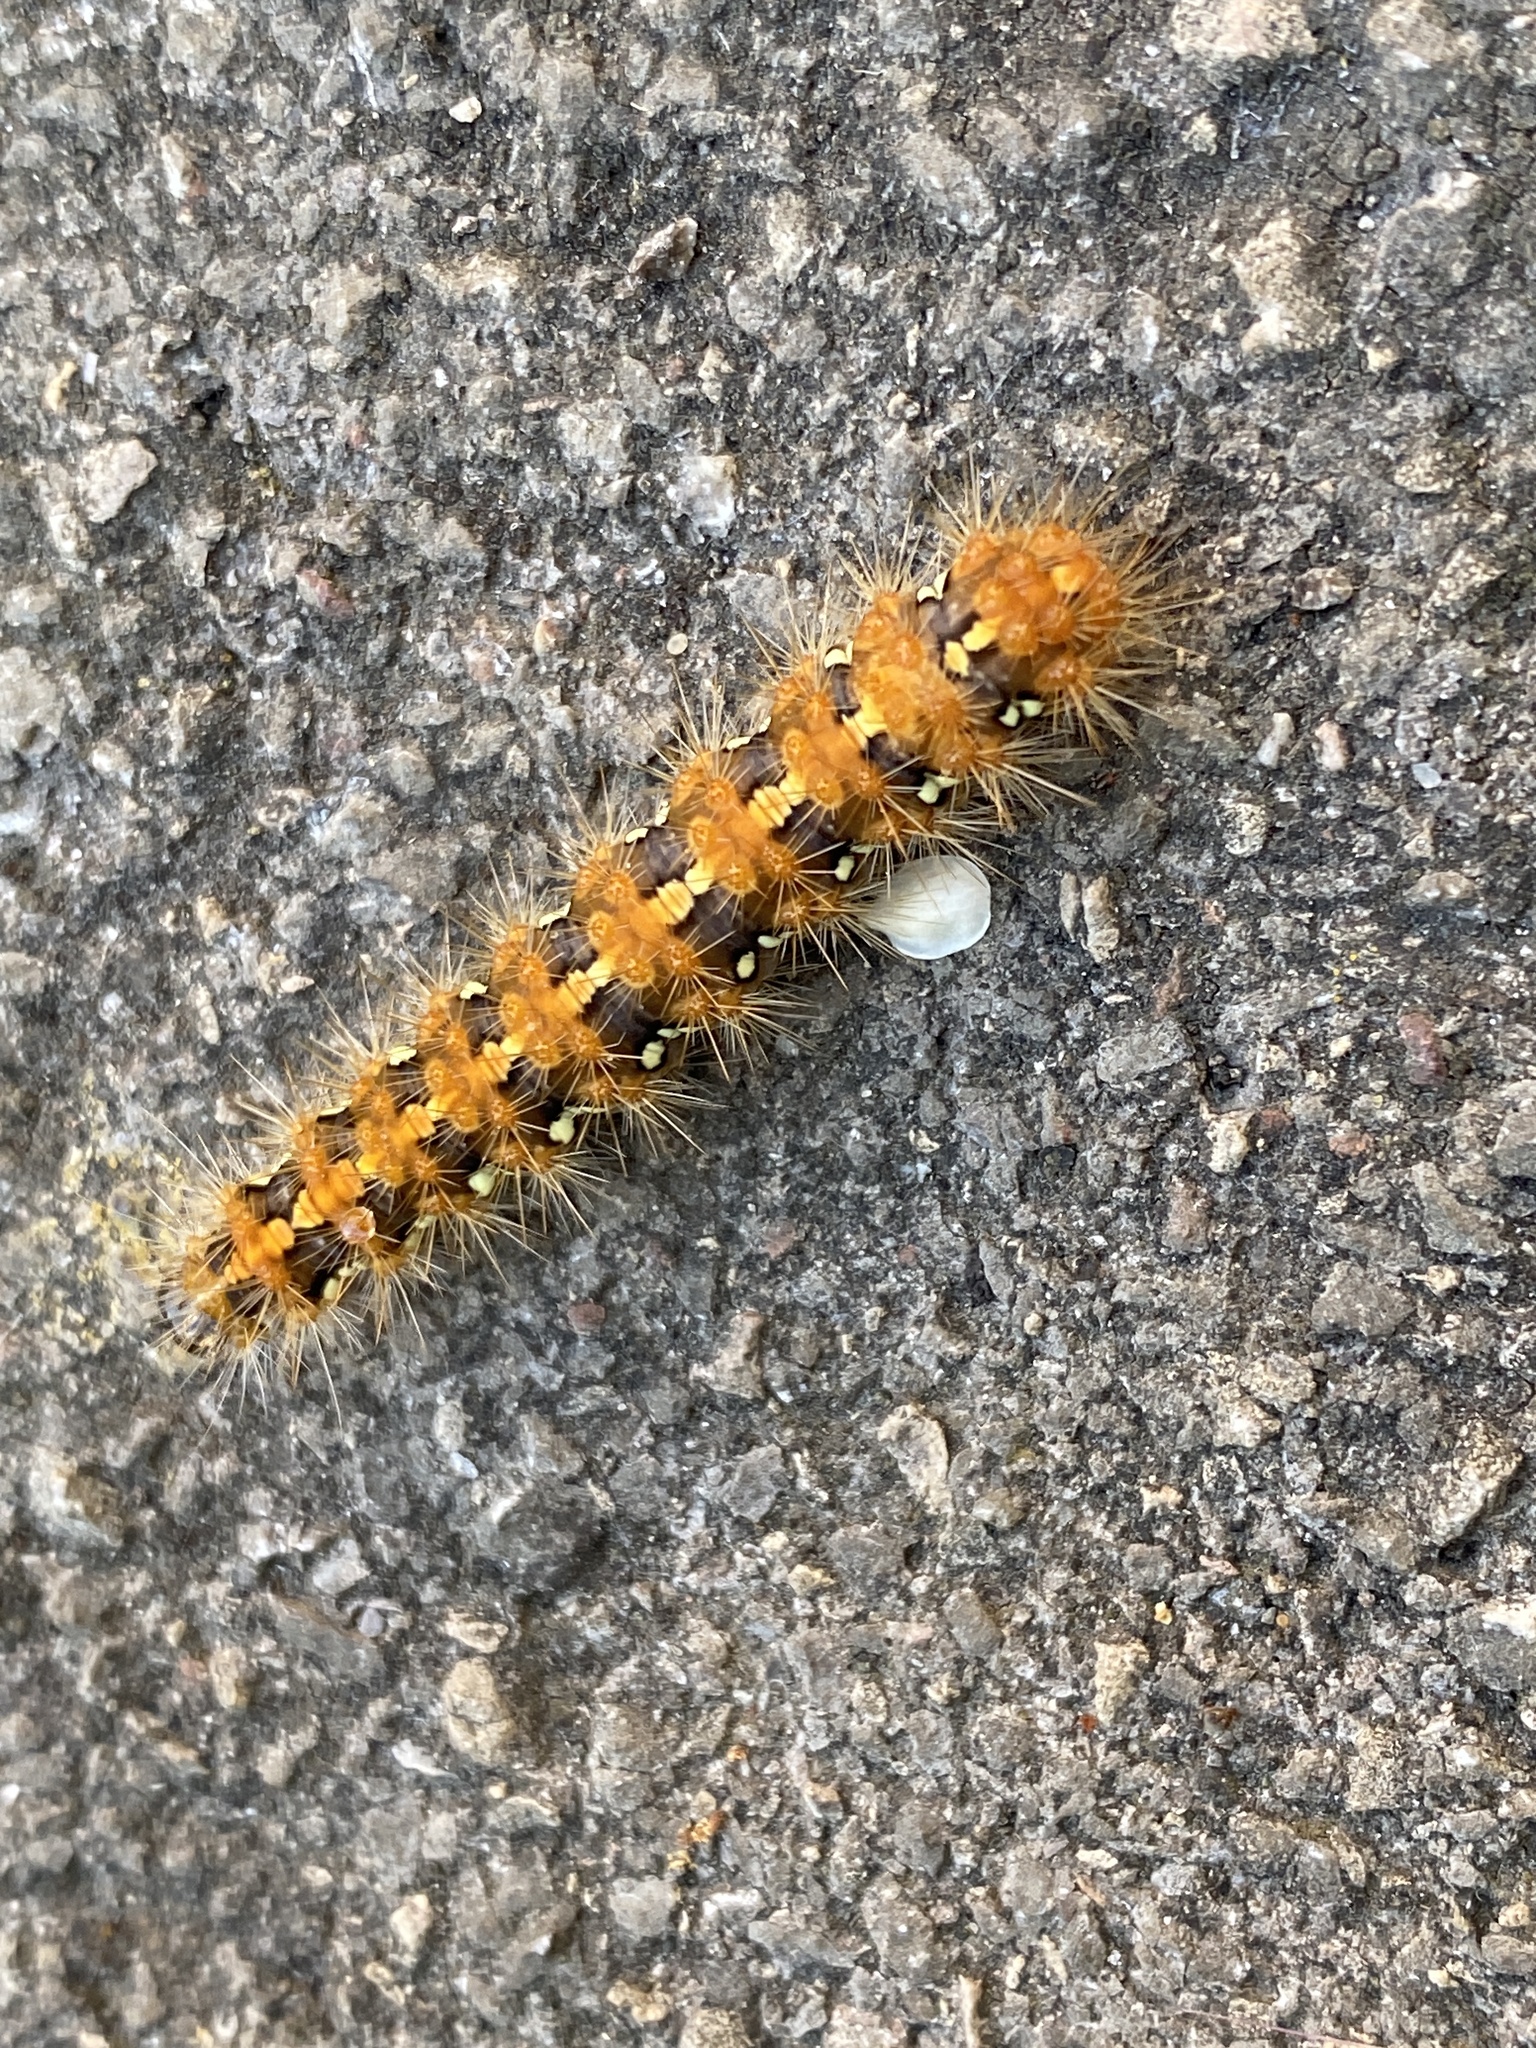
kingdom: Animalia
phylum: Arthropoda
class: Insecta
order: Lepidoptera
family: Erebidae
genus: Euplagia
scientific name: Euplagia quadripunctaria
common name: Jersey tiger
